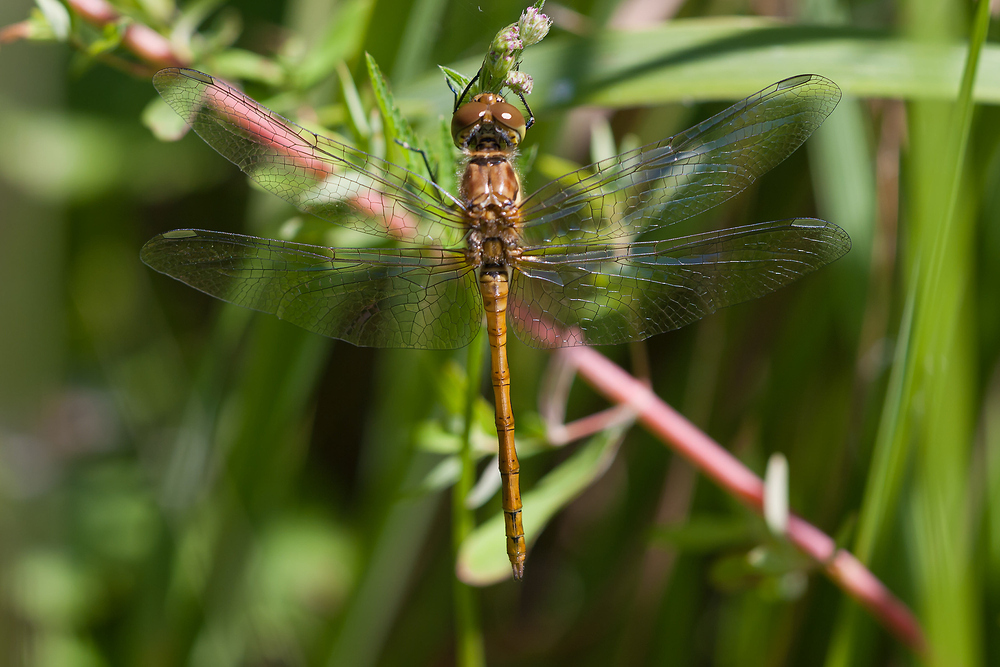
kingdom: Animalia
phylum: Arthropoda
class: Insecta
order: Odonata
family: Libellulidae
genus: Sympetrum
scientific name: Sympetrum striolatum
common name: Common darter
